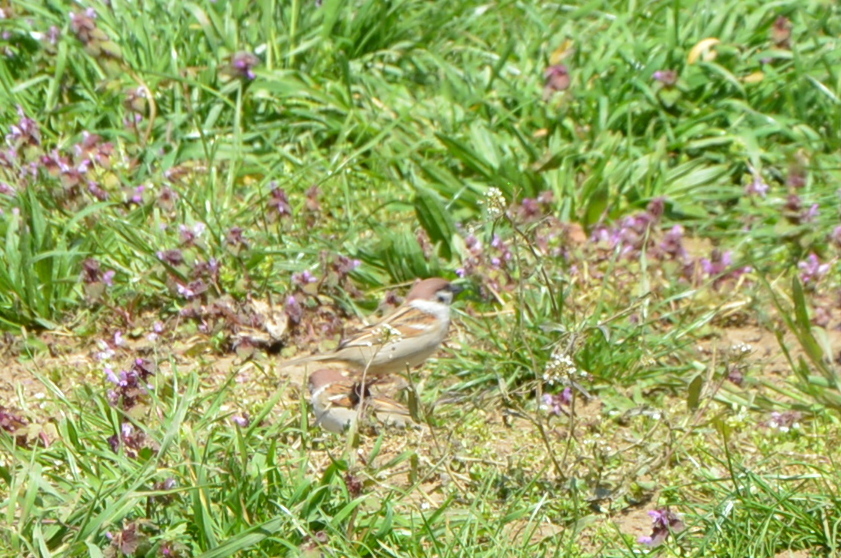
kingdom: Animalia
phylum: Chordata
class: Aves
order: Passeriformes
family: Passeridae
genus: Passer
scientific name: Passer montanus
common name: Eurasian tree sparrow
